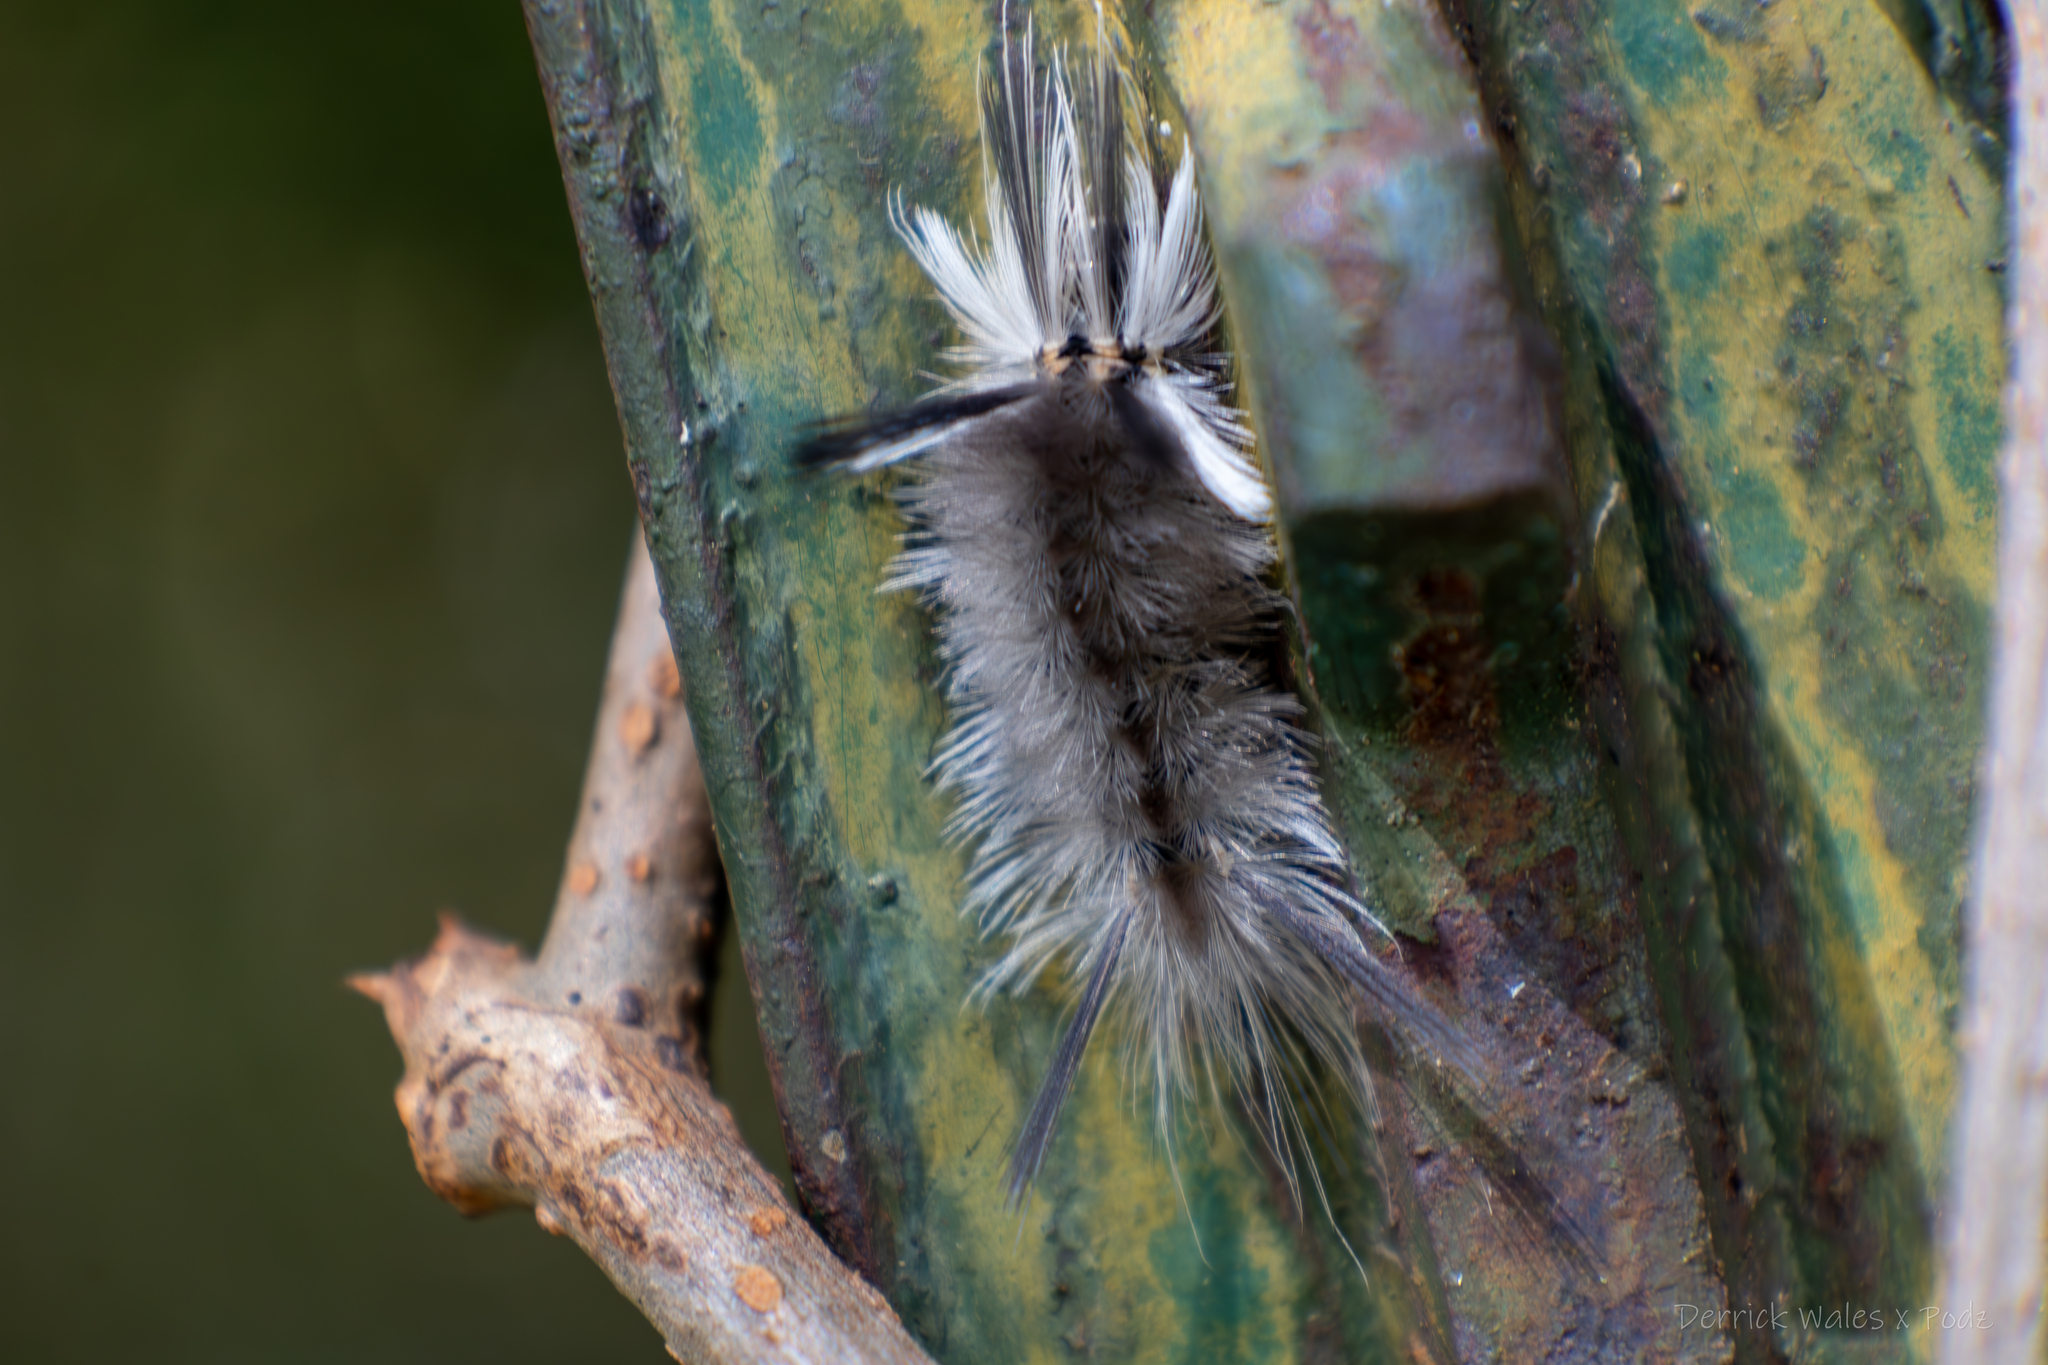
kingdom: Animalia
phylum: Arthropoda
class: Insecta
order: Lepidoptera
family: Erebidae
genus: Halysidota
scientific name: Halysidota tessellaris
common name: Banded tussock moth
